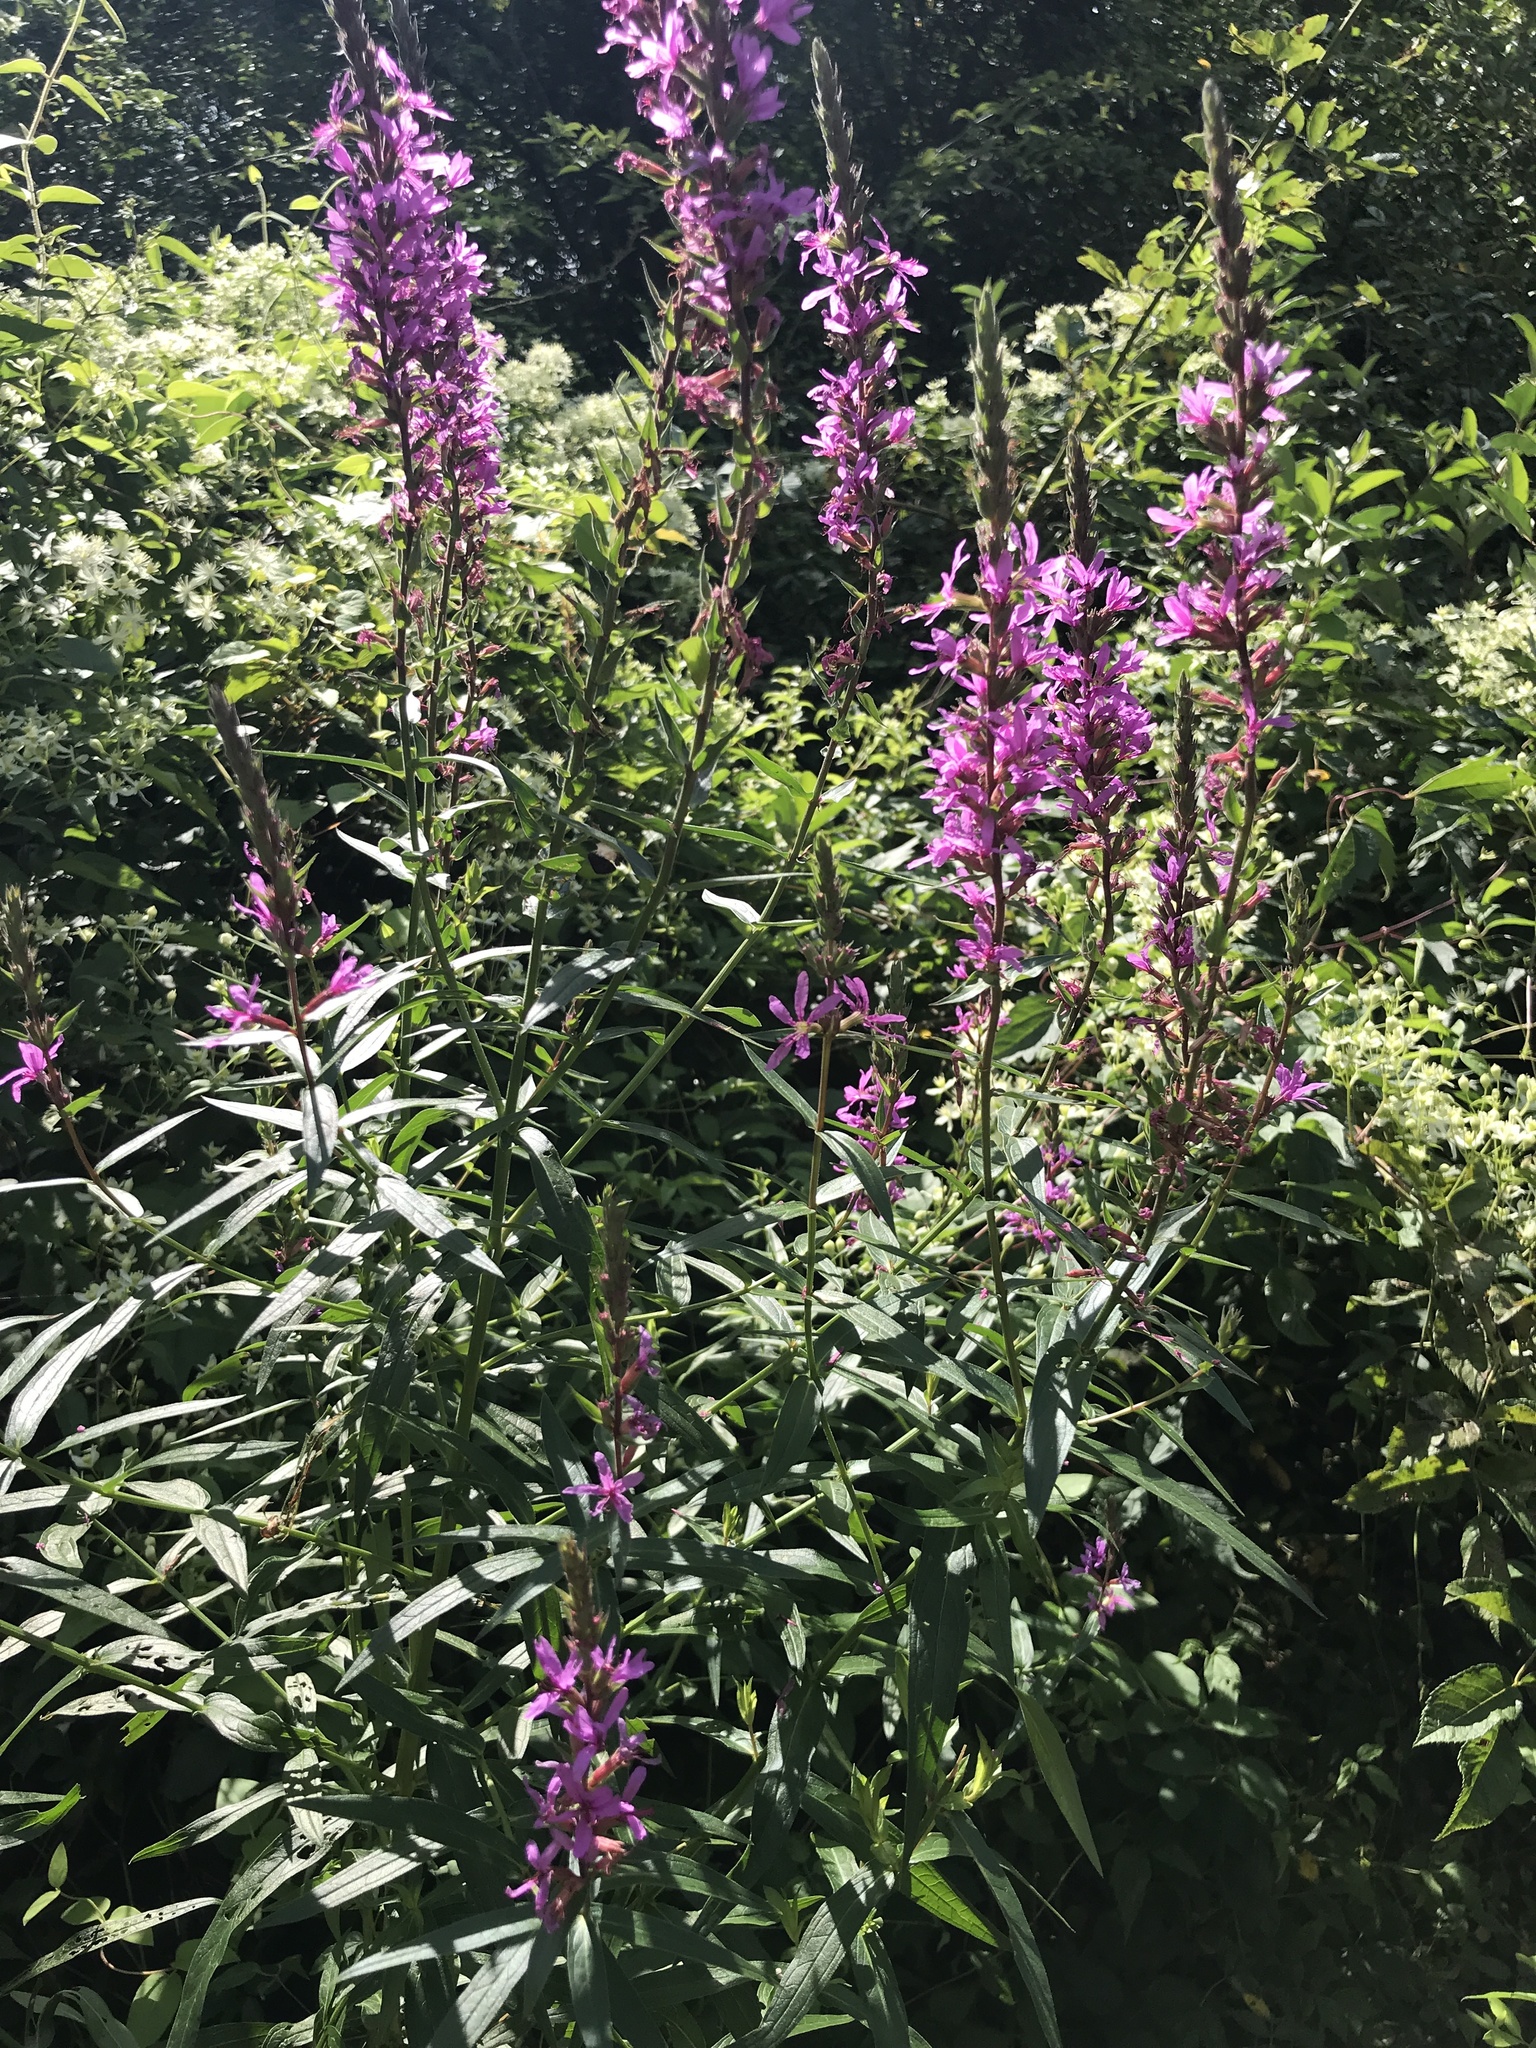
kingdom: Plantae
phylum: Tracheophyta
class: Magnoliopsida
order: Myrtales
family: Lythraceae
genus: Lythrum
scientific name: Lythrum salicaria
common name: Purple loosestrife
